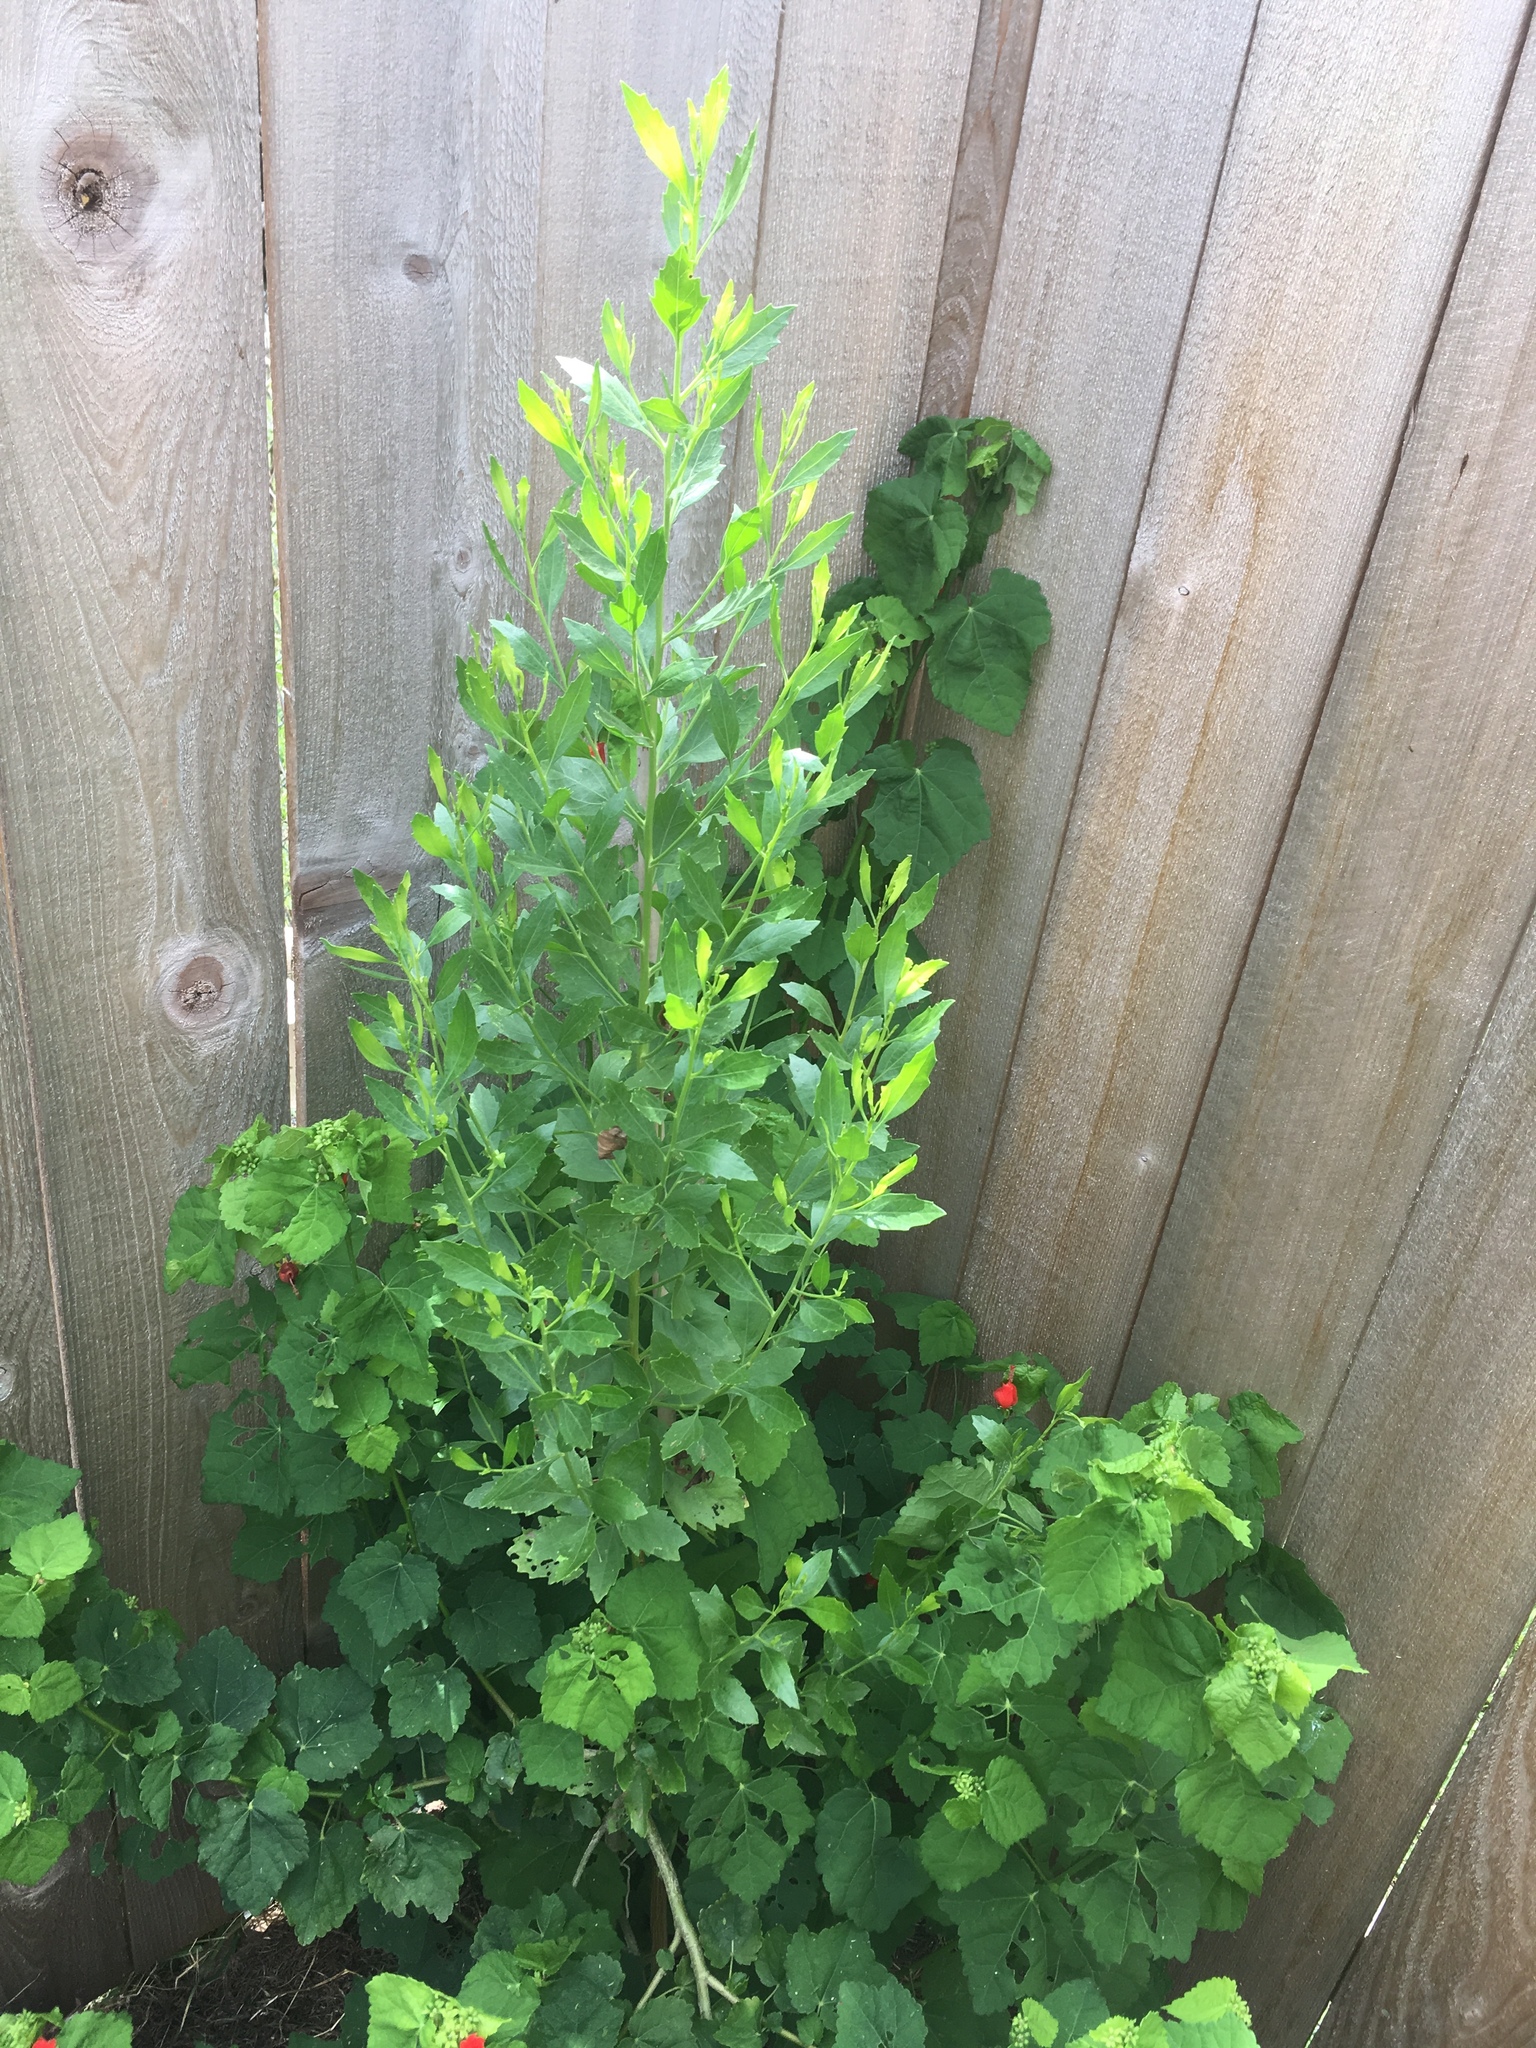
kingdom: Plantae
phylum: Tracheophyta
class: Magnoliopsida
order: Asterales
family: Asteraceae
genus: Baccharis
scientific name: Baccharis halimifolia
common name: Eastern baccharis
